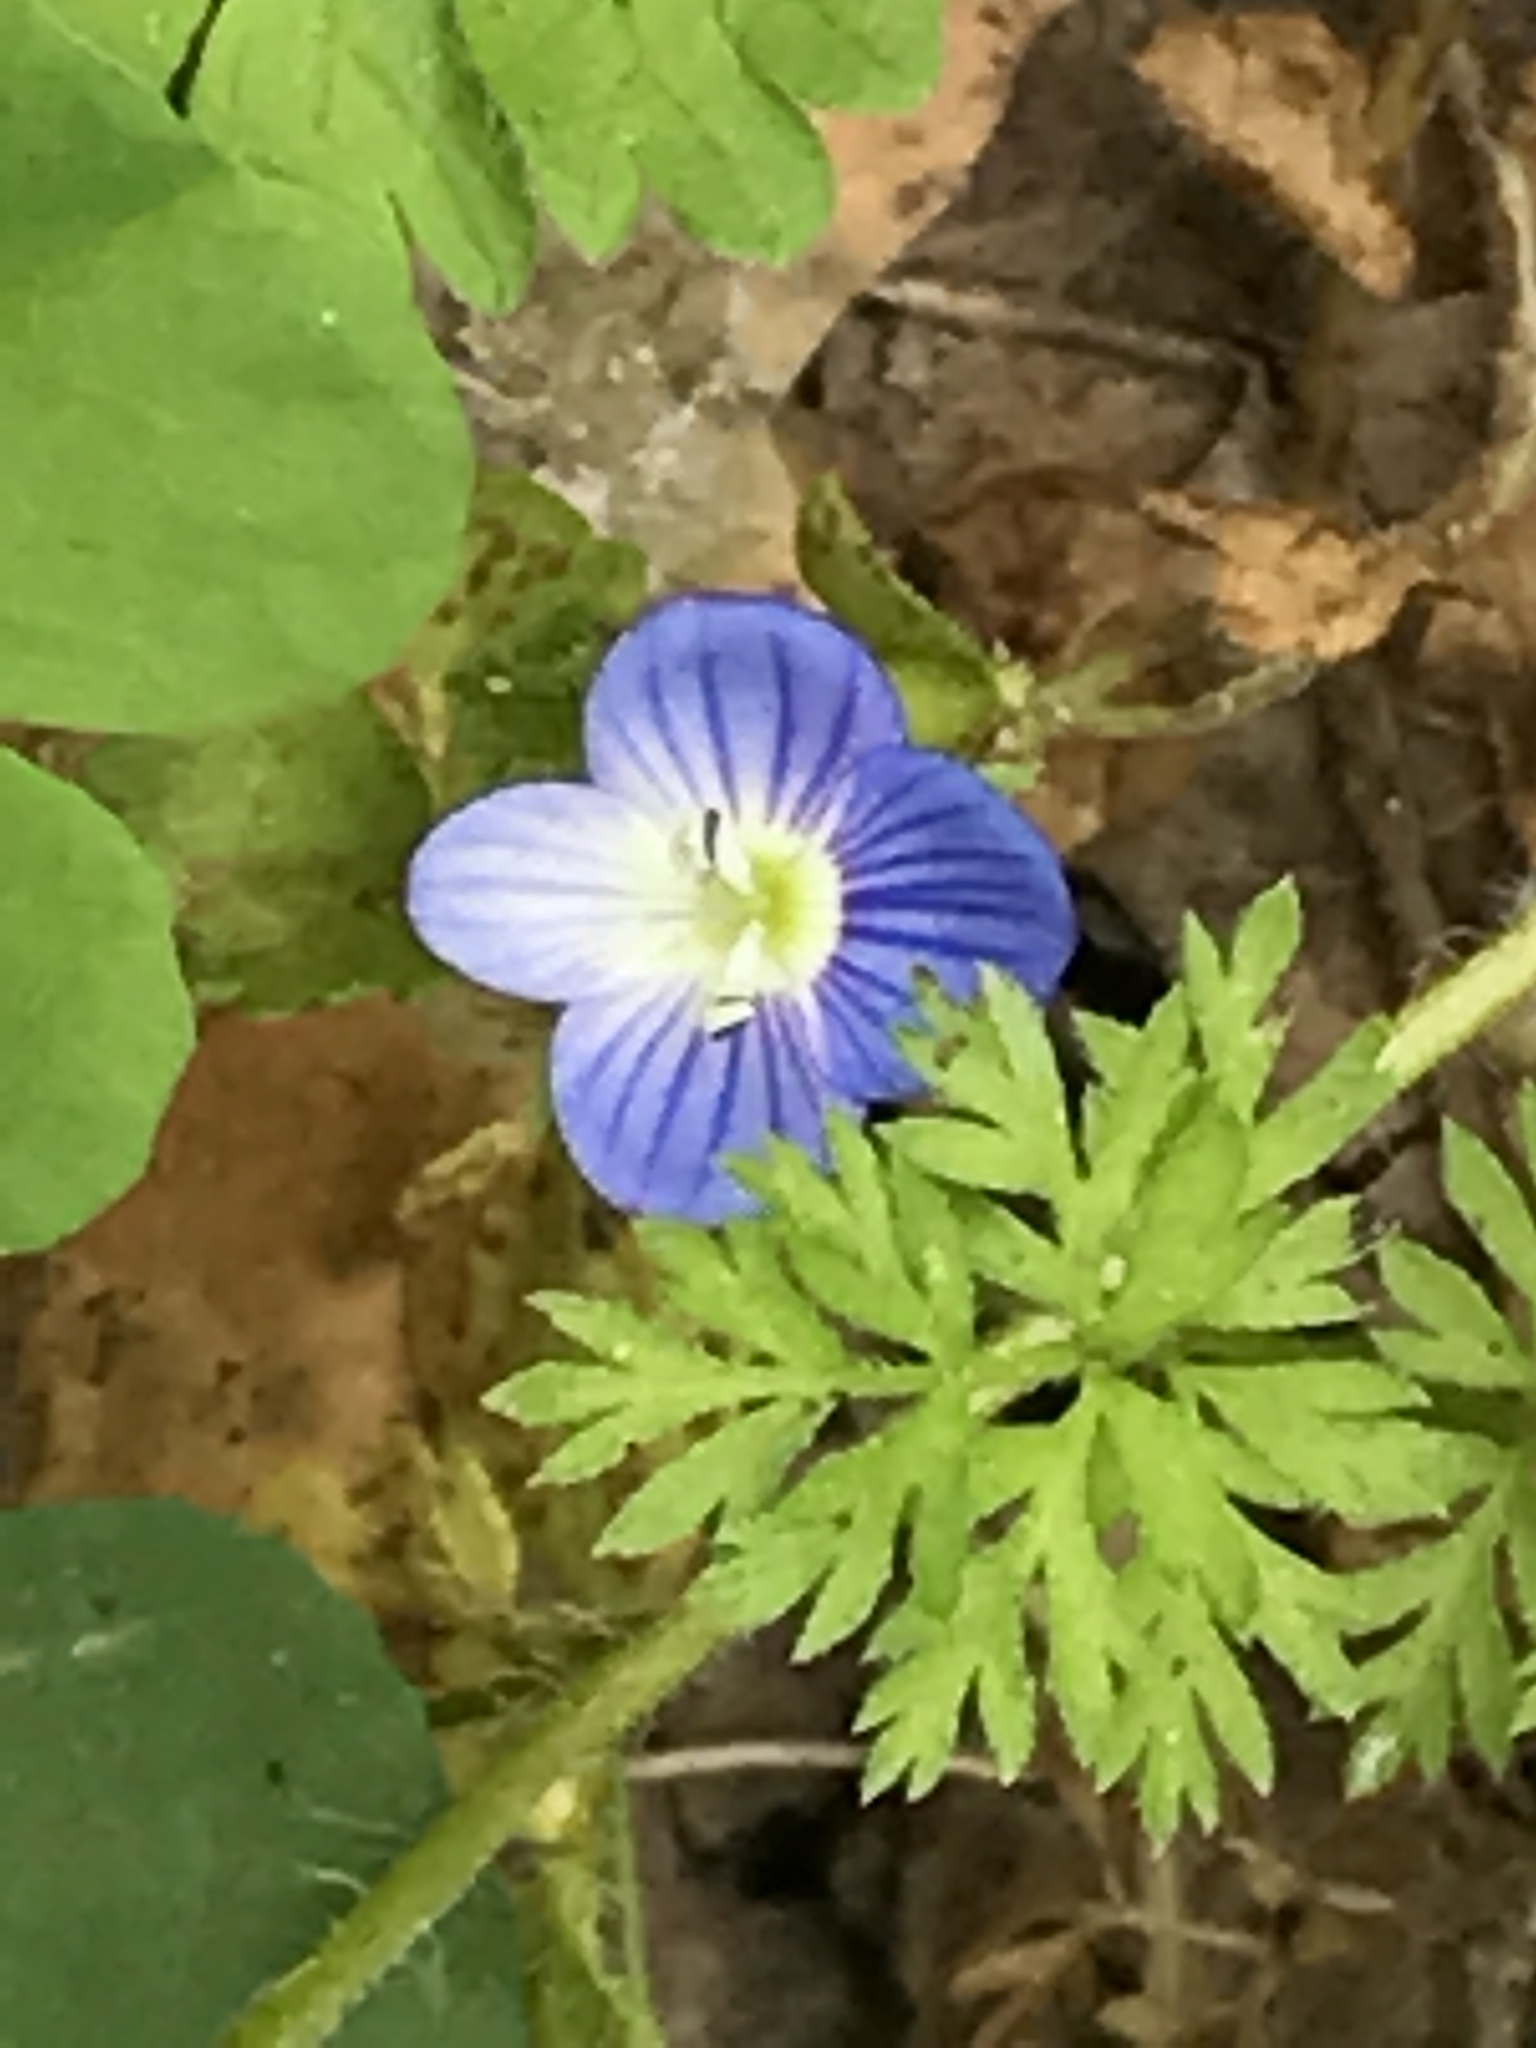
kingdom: Plantae
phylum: Tracheophyta
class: Magnoliopsida
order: Lamiales
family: Plantaginaceae
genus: Veronica
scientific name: Veronica persica
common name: Common field-speedwell
